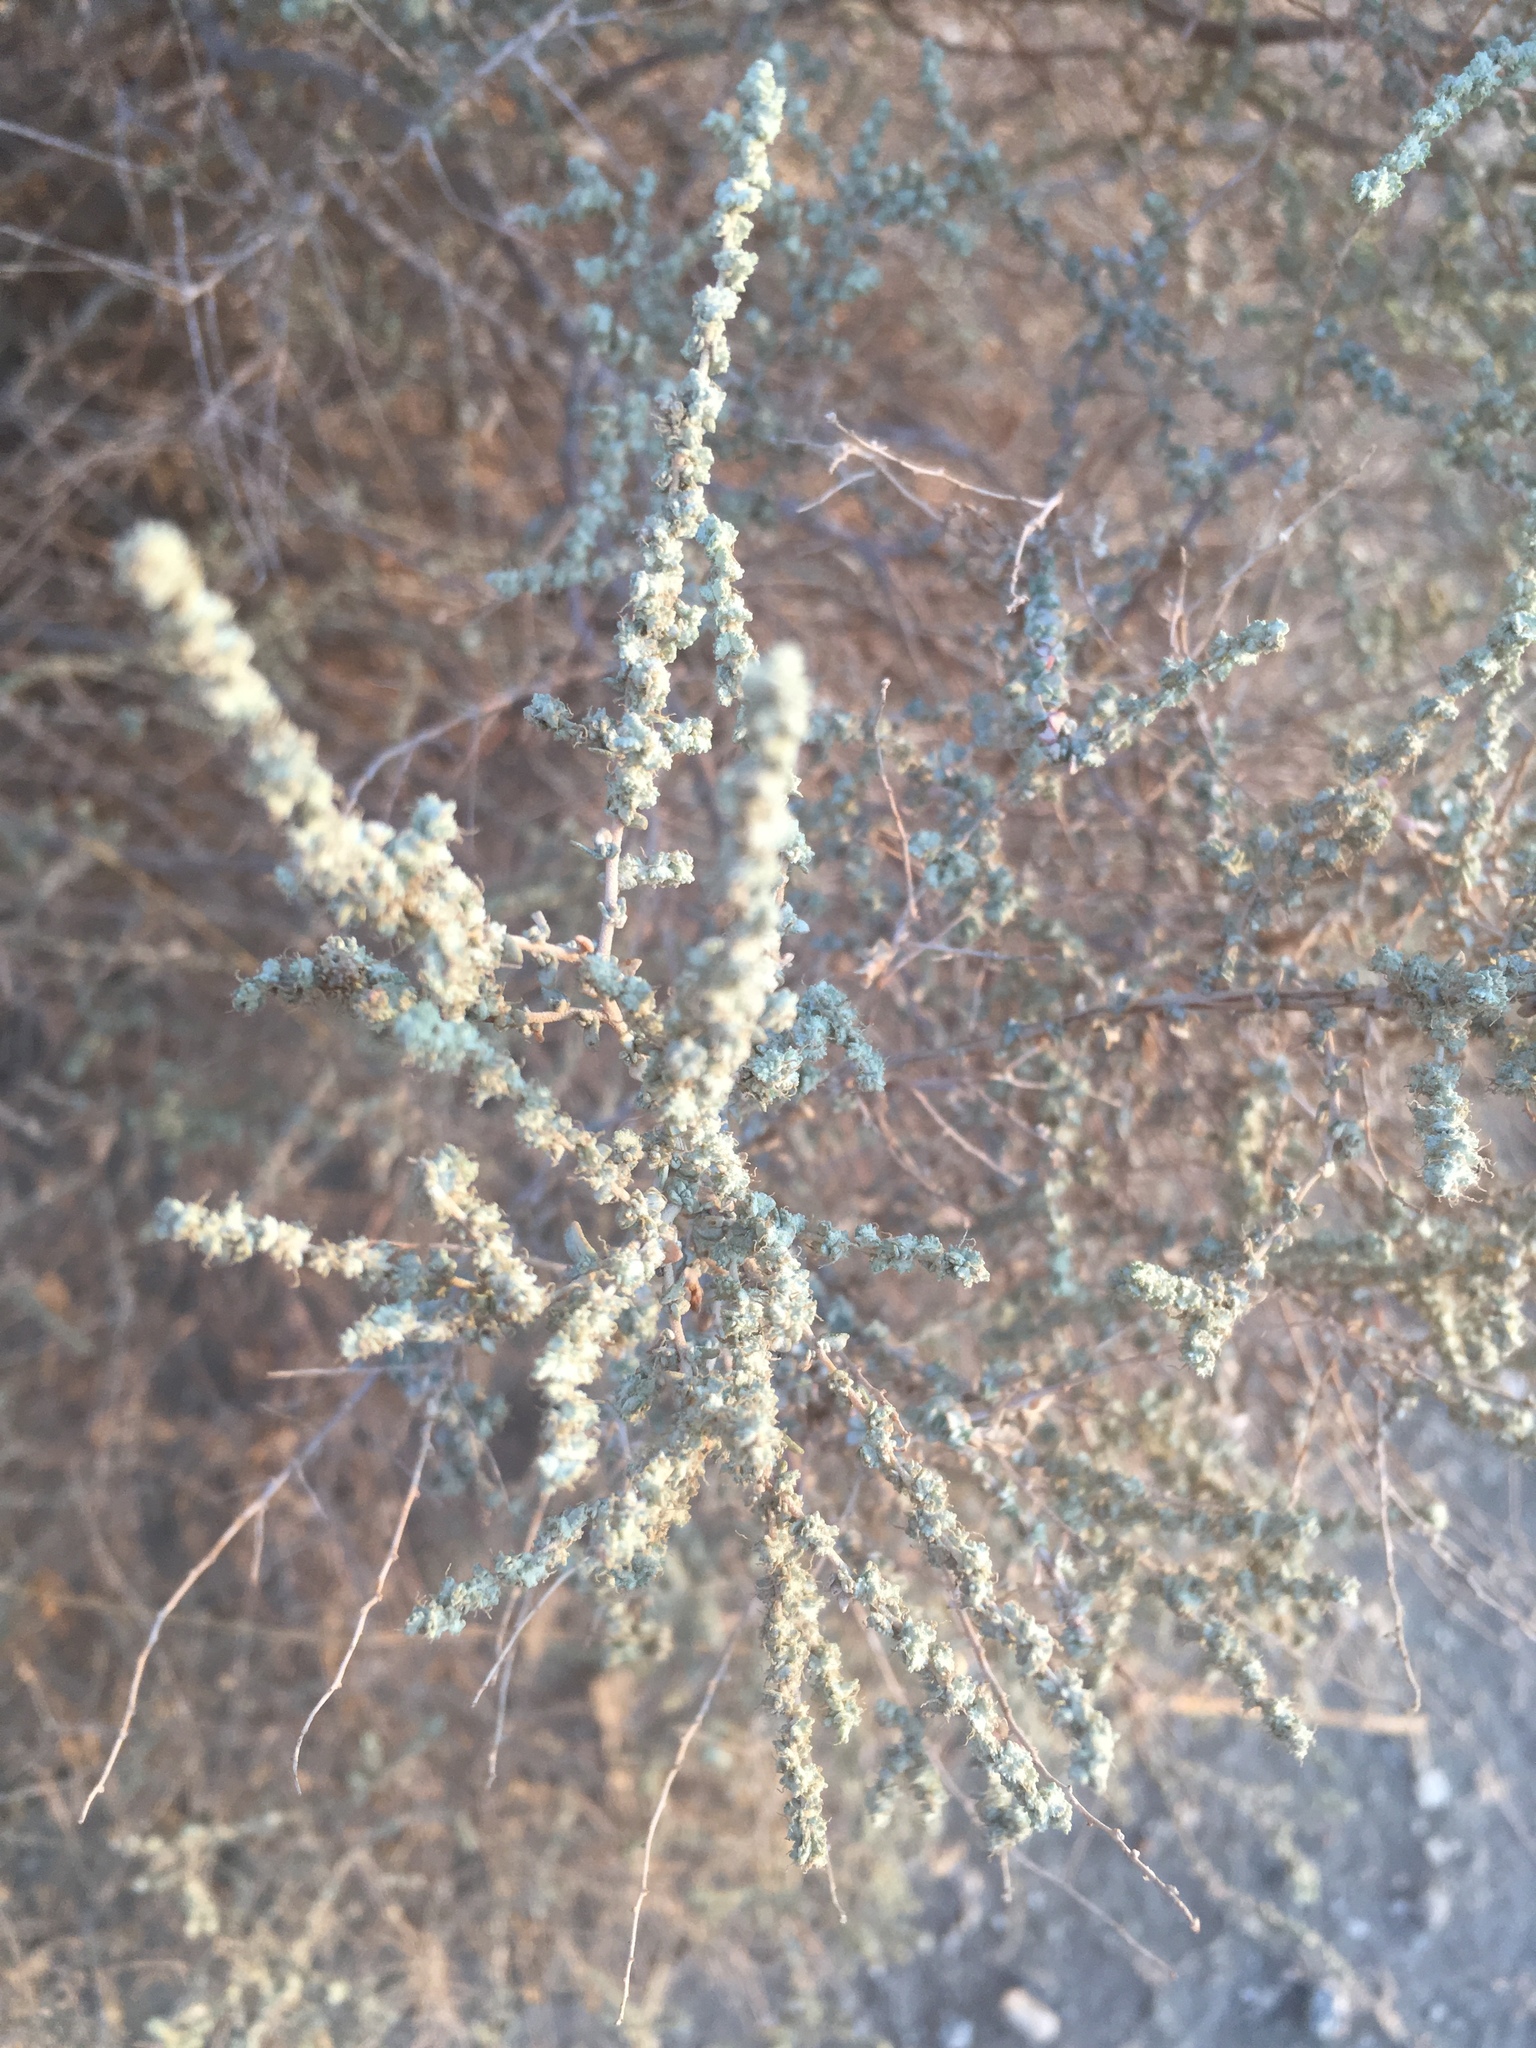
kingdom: Plantae
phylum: Tracheophyta
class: Magnoliopsida
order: Caryophyllales
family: Amaranthaceae
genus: Atriplex
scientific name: Atriplex polycarpa
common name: Desert saltbush
